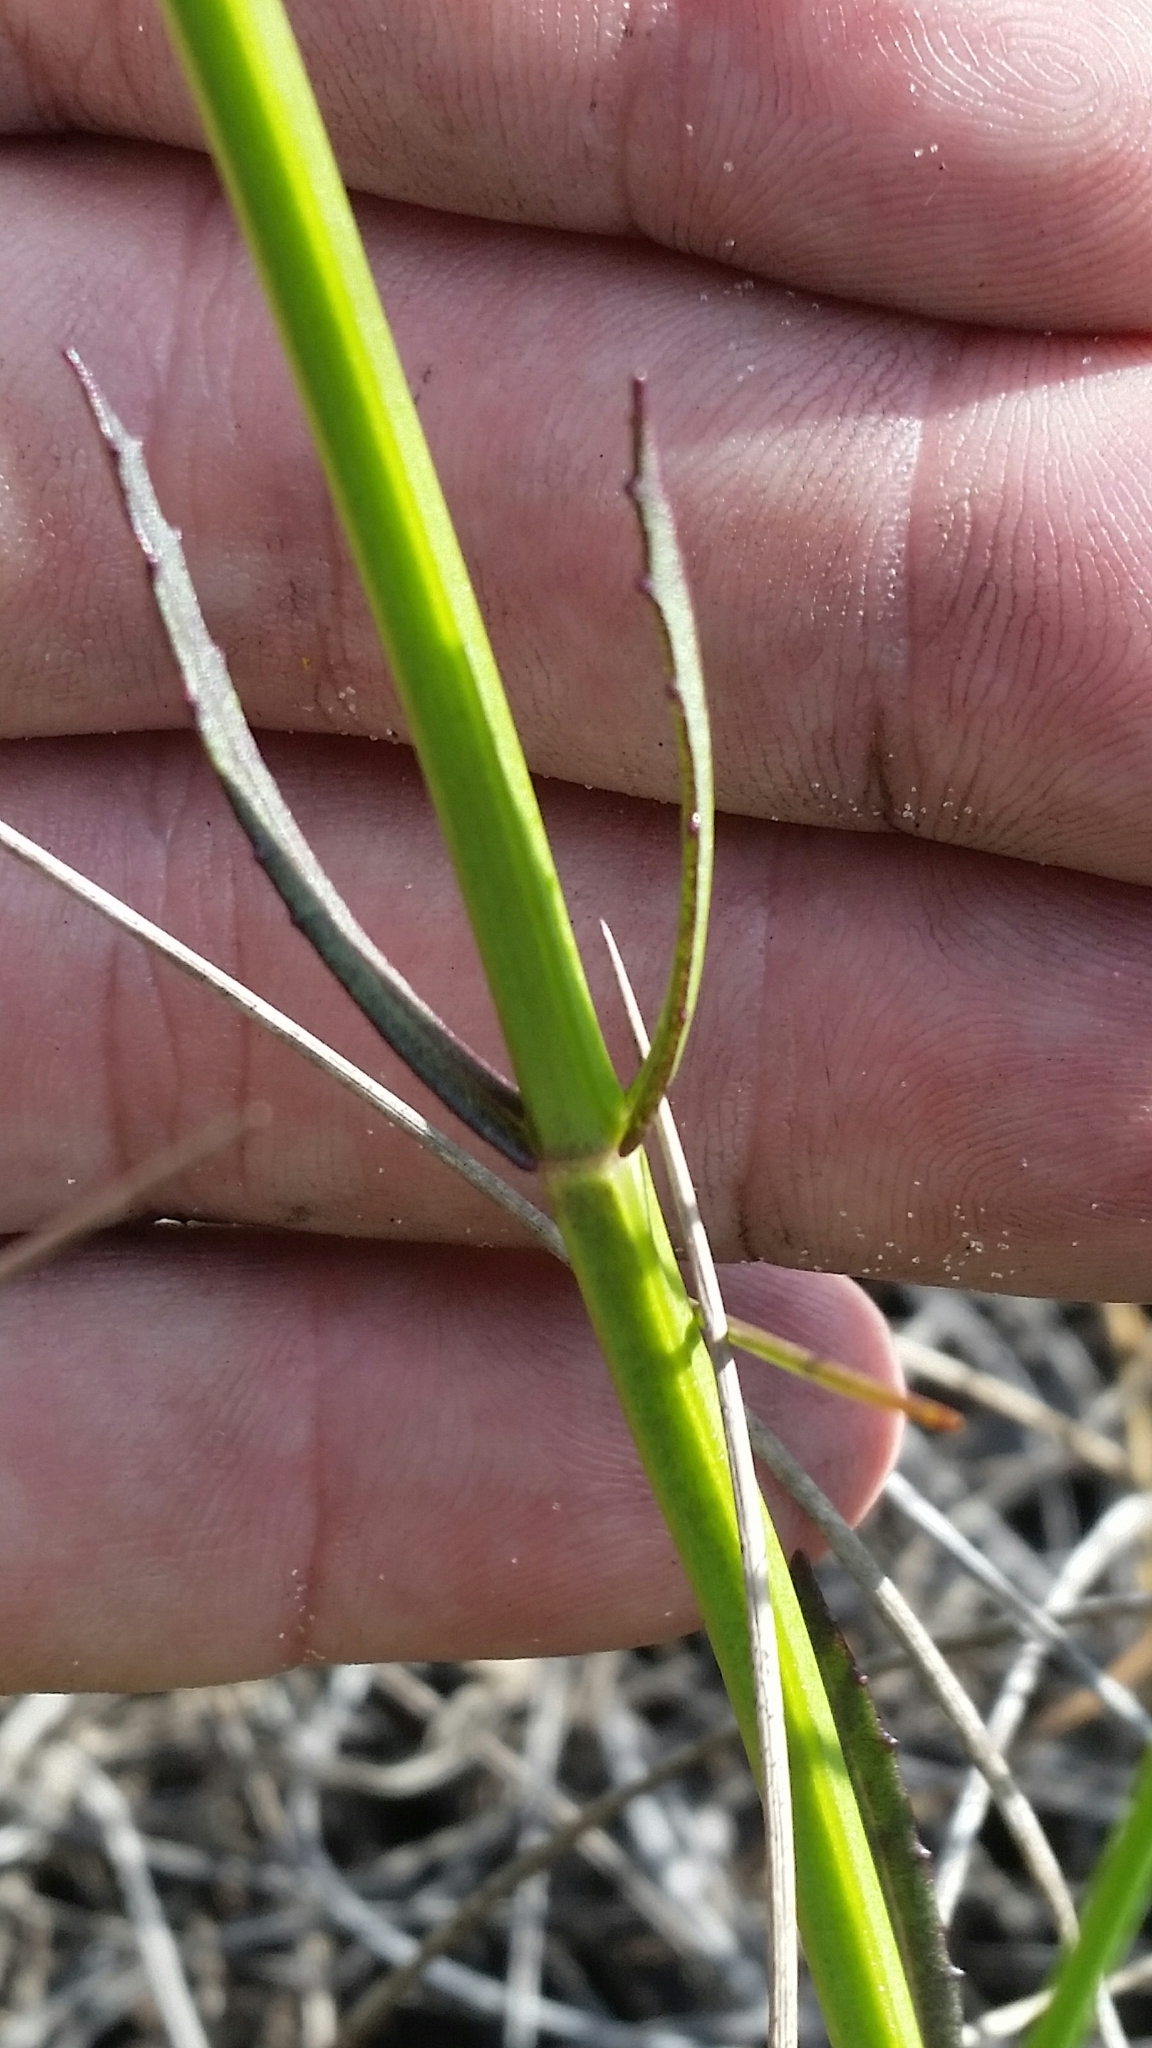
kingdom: Plantae
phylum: Tracheophyta
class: Magnoliopsida
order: Lamiales
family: Lamiaceae
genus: Physostegia
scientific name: Physostegia purpurea
